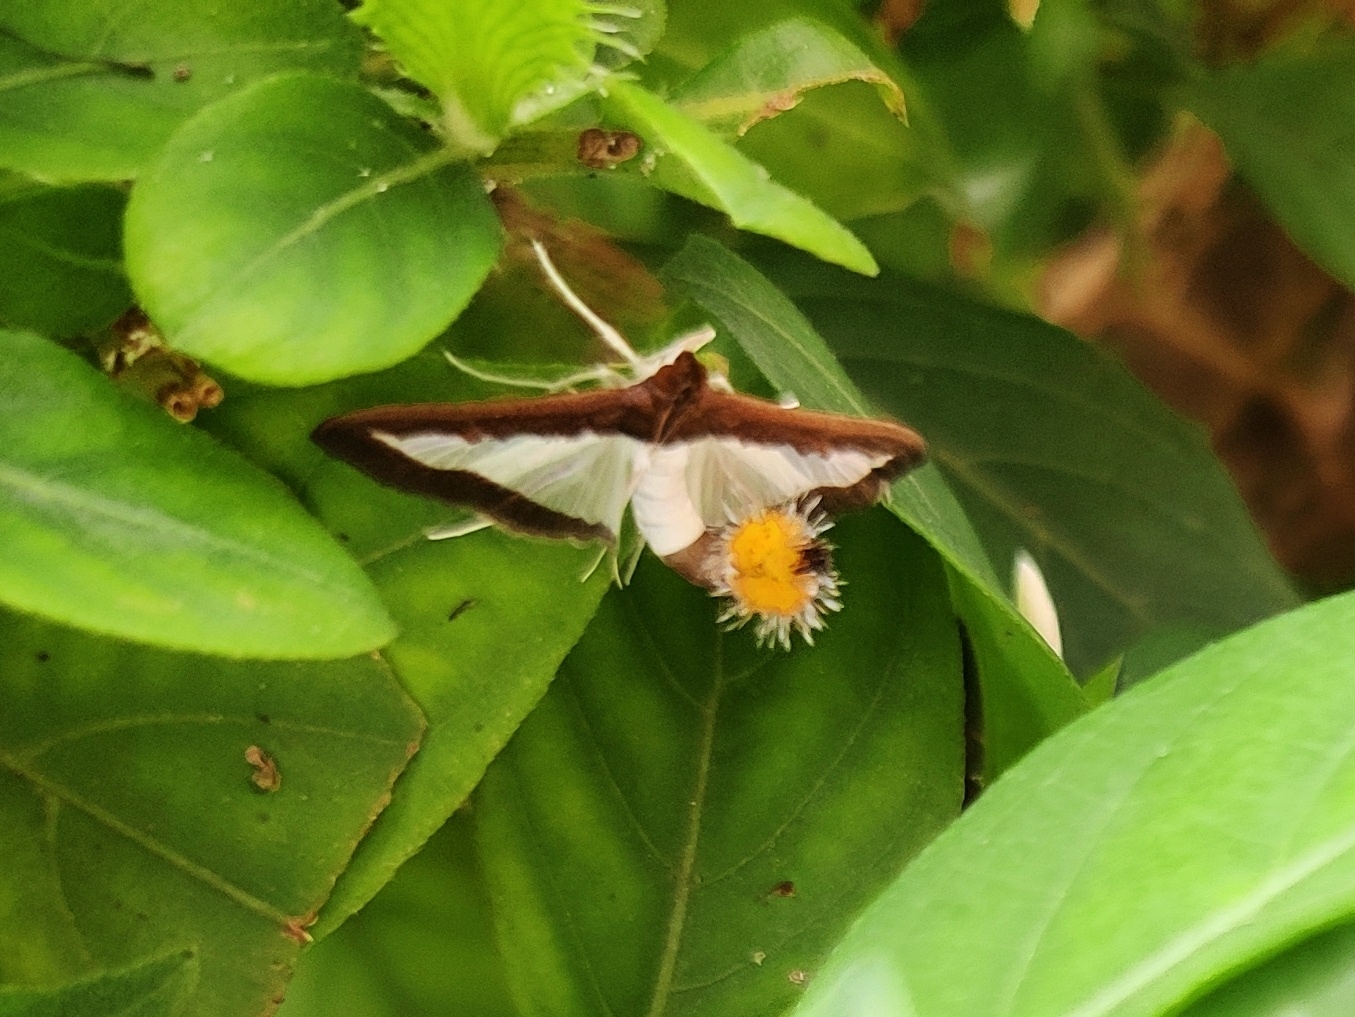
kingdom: Animalia
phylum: Arthropoda
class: Insecta
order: Lepidoptera
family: Crambidae
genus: Diaphania
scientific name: Diaphania indica
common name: Cucumber moth
